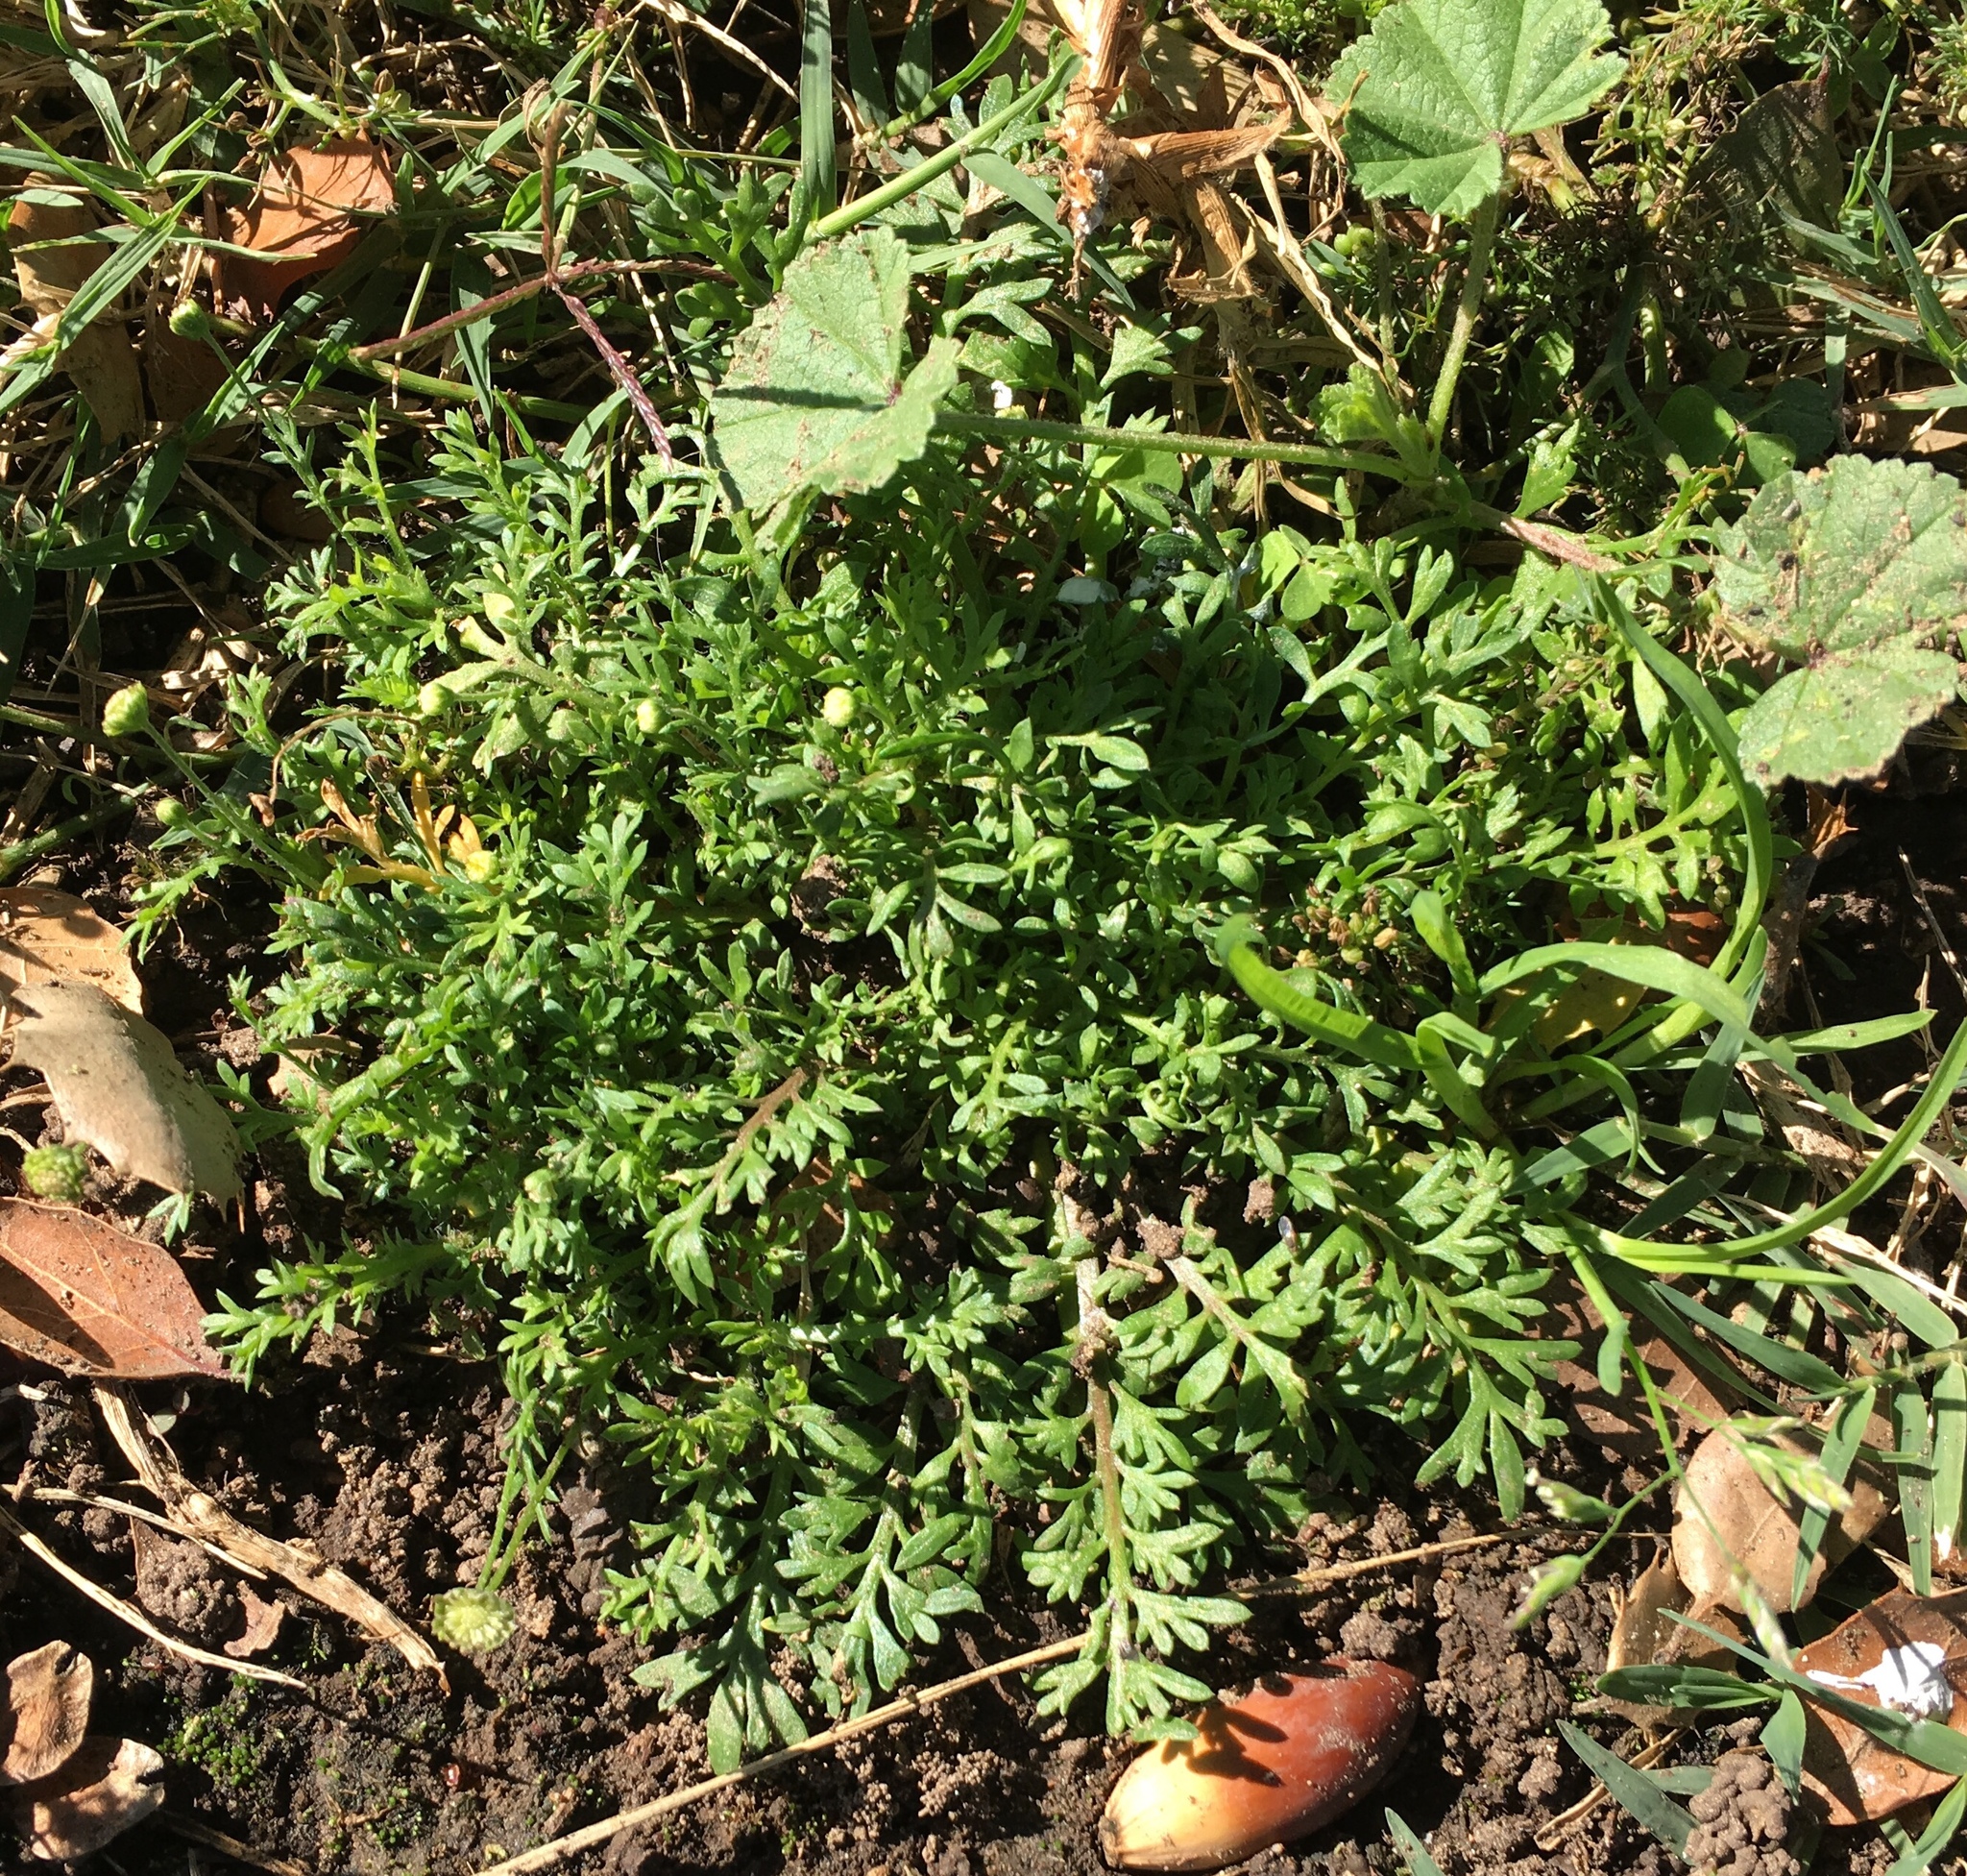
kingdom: Plantae
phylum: Tracheophyta
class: Magnoliopsida
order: Asterales
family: Asteraceae
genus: Cotula
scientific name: Cotula australis
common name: Australian waterbuttons
